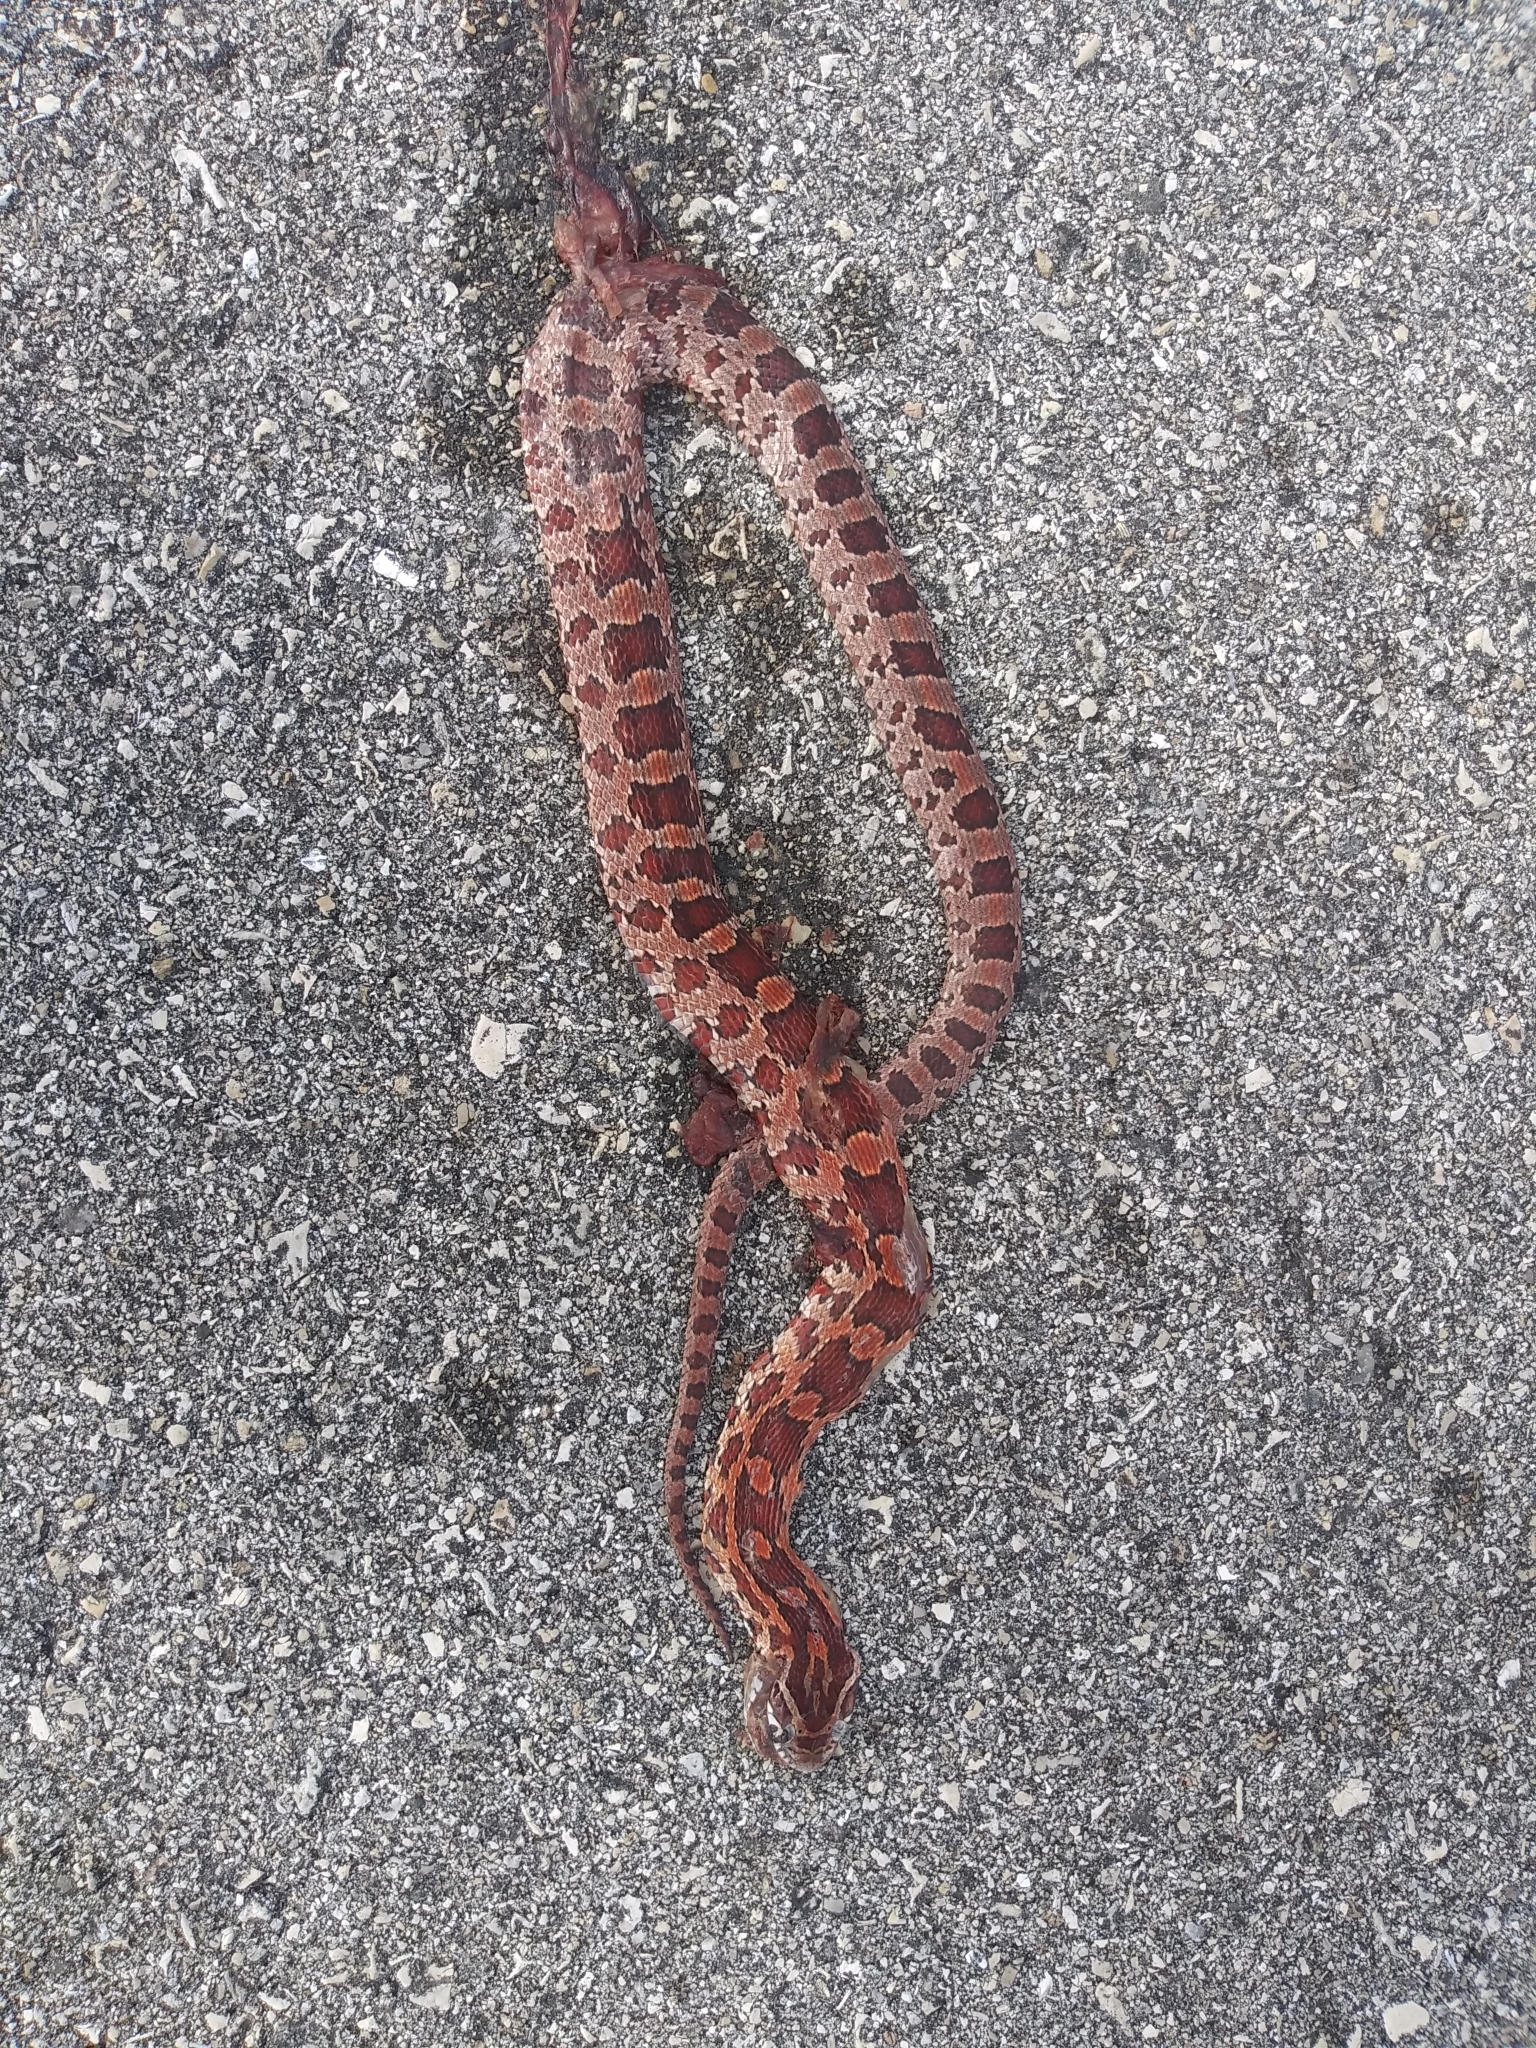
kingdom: Animalia
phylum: Chordata
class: Squamata
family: Colubridae
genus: Pantherophis
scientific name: Pantherophis guttatus
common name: Red cornsnake
